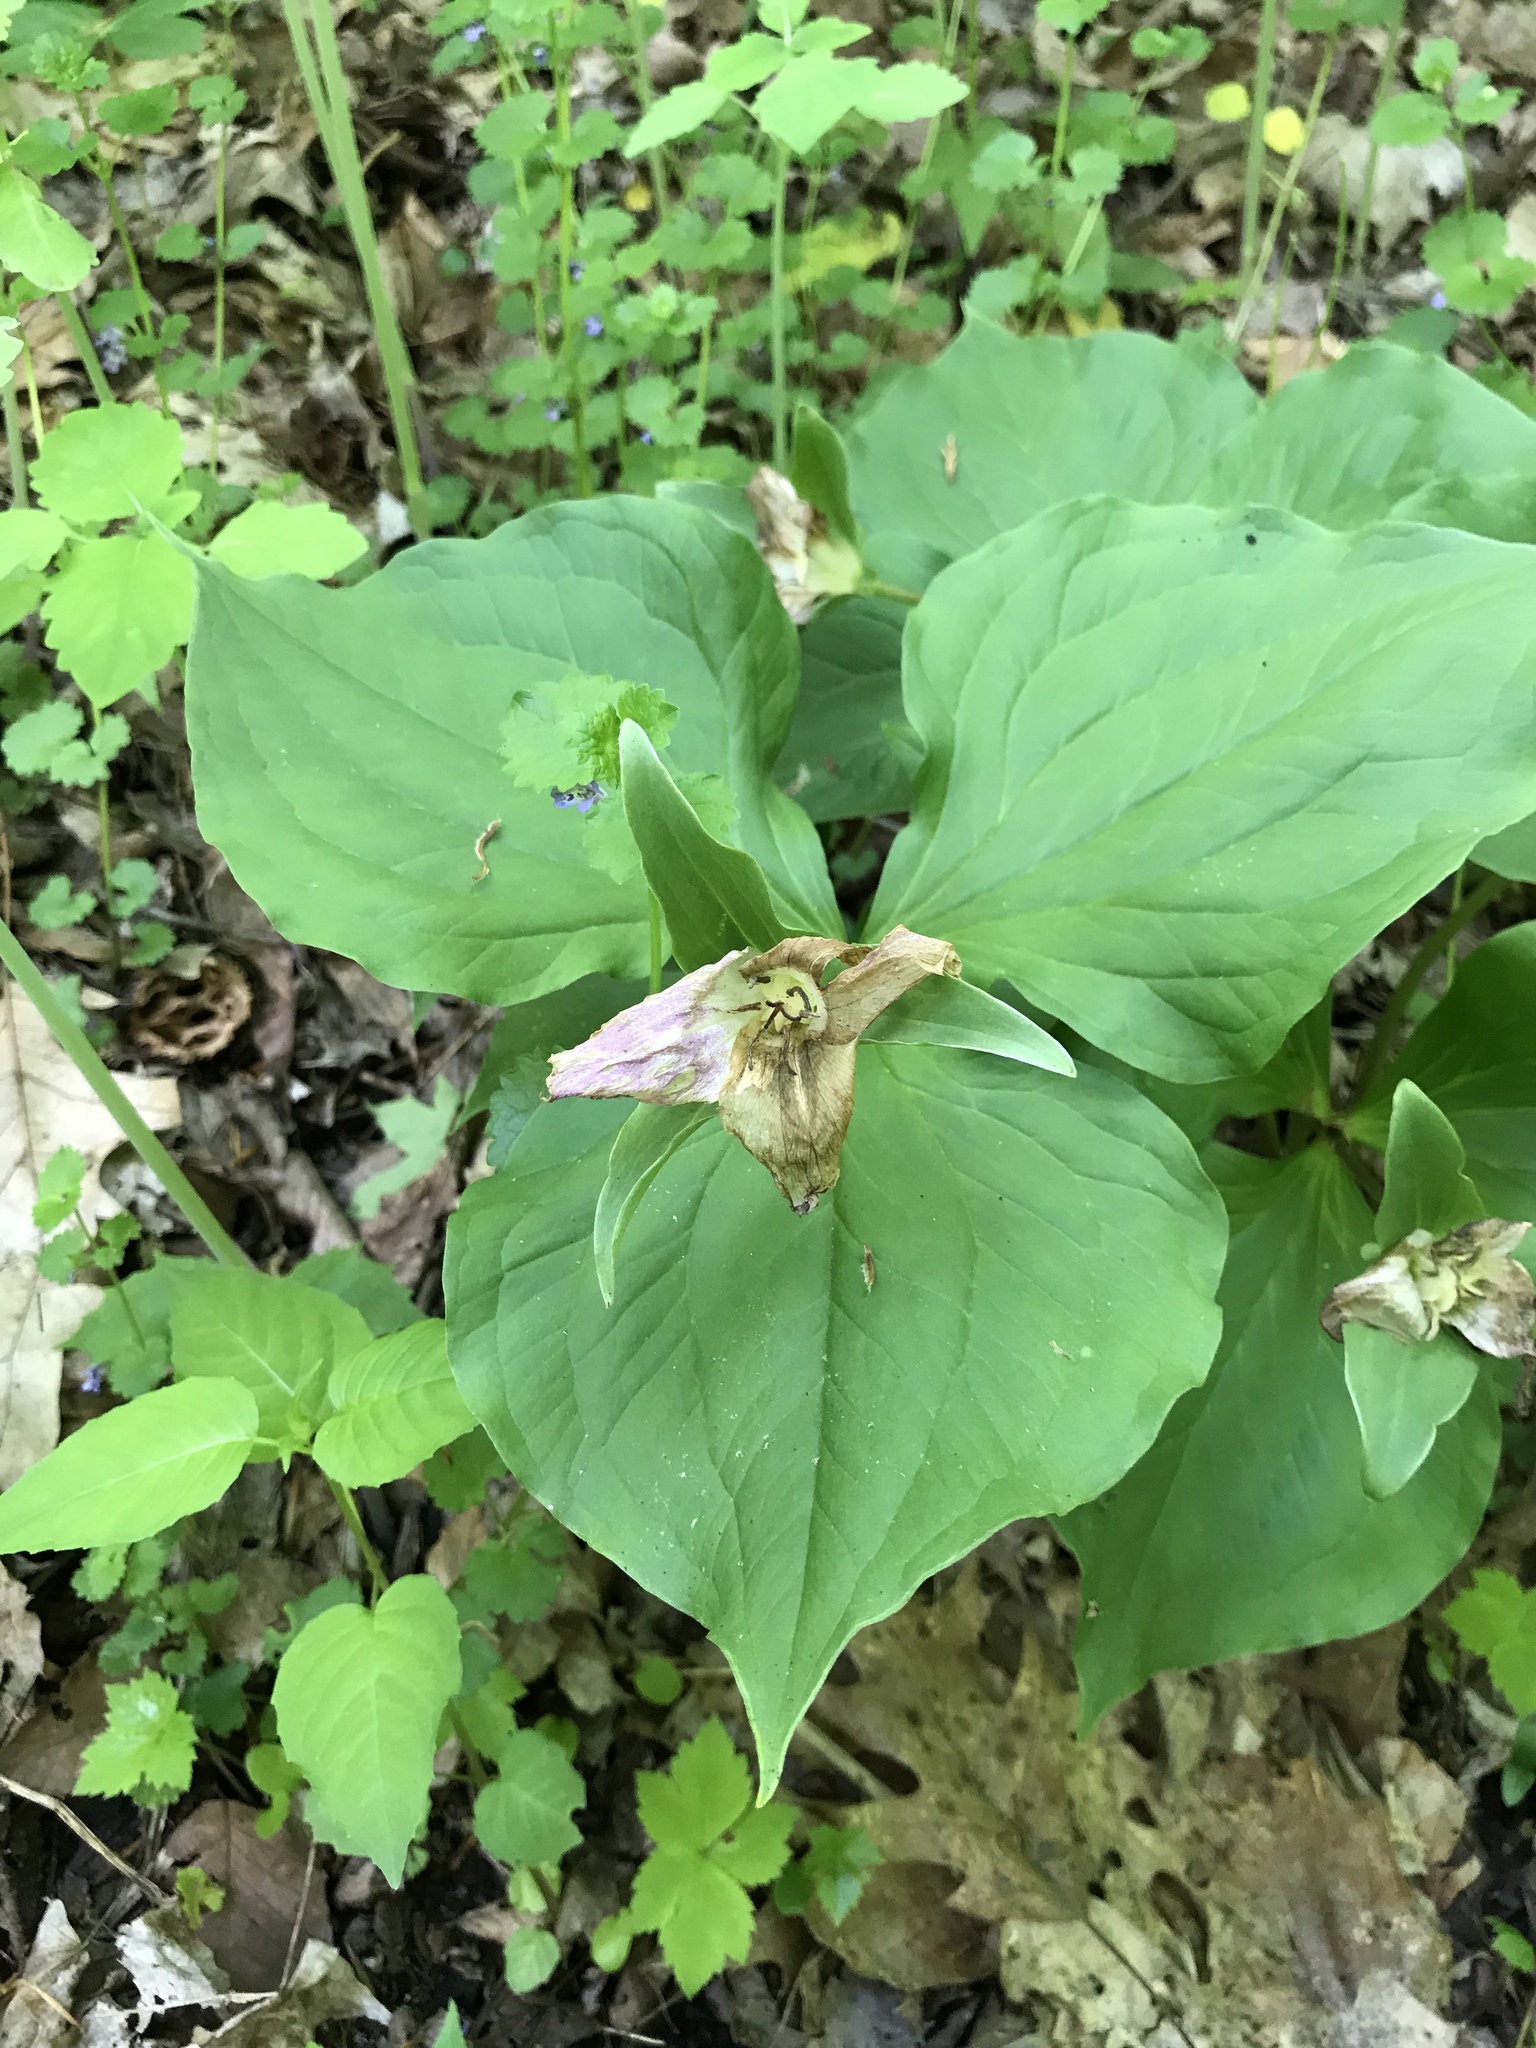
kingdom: Plantae
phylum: Tracheophyta
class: Liliopsida
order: Liliales
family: Melanthiaceae
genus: Trillium
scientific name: Trillium grandiflorum
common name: Great white trillium
